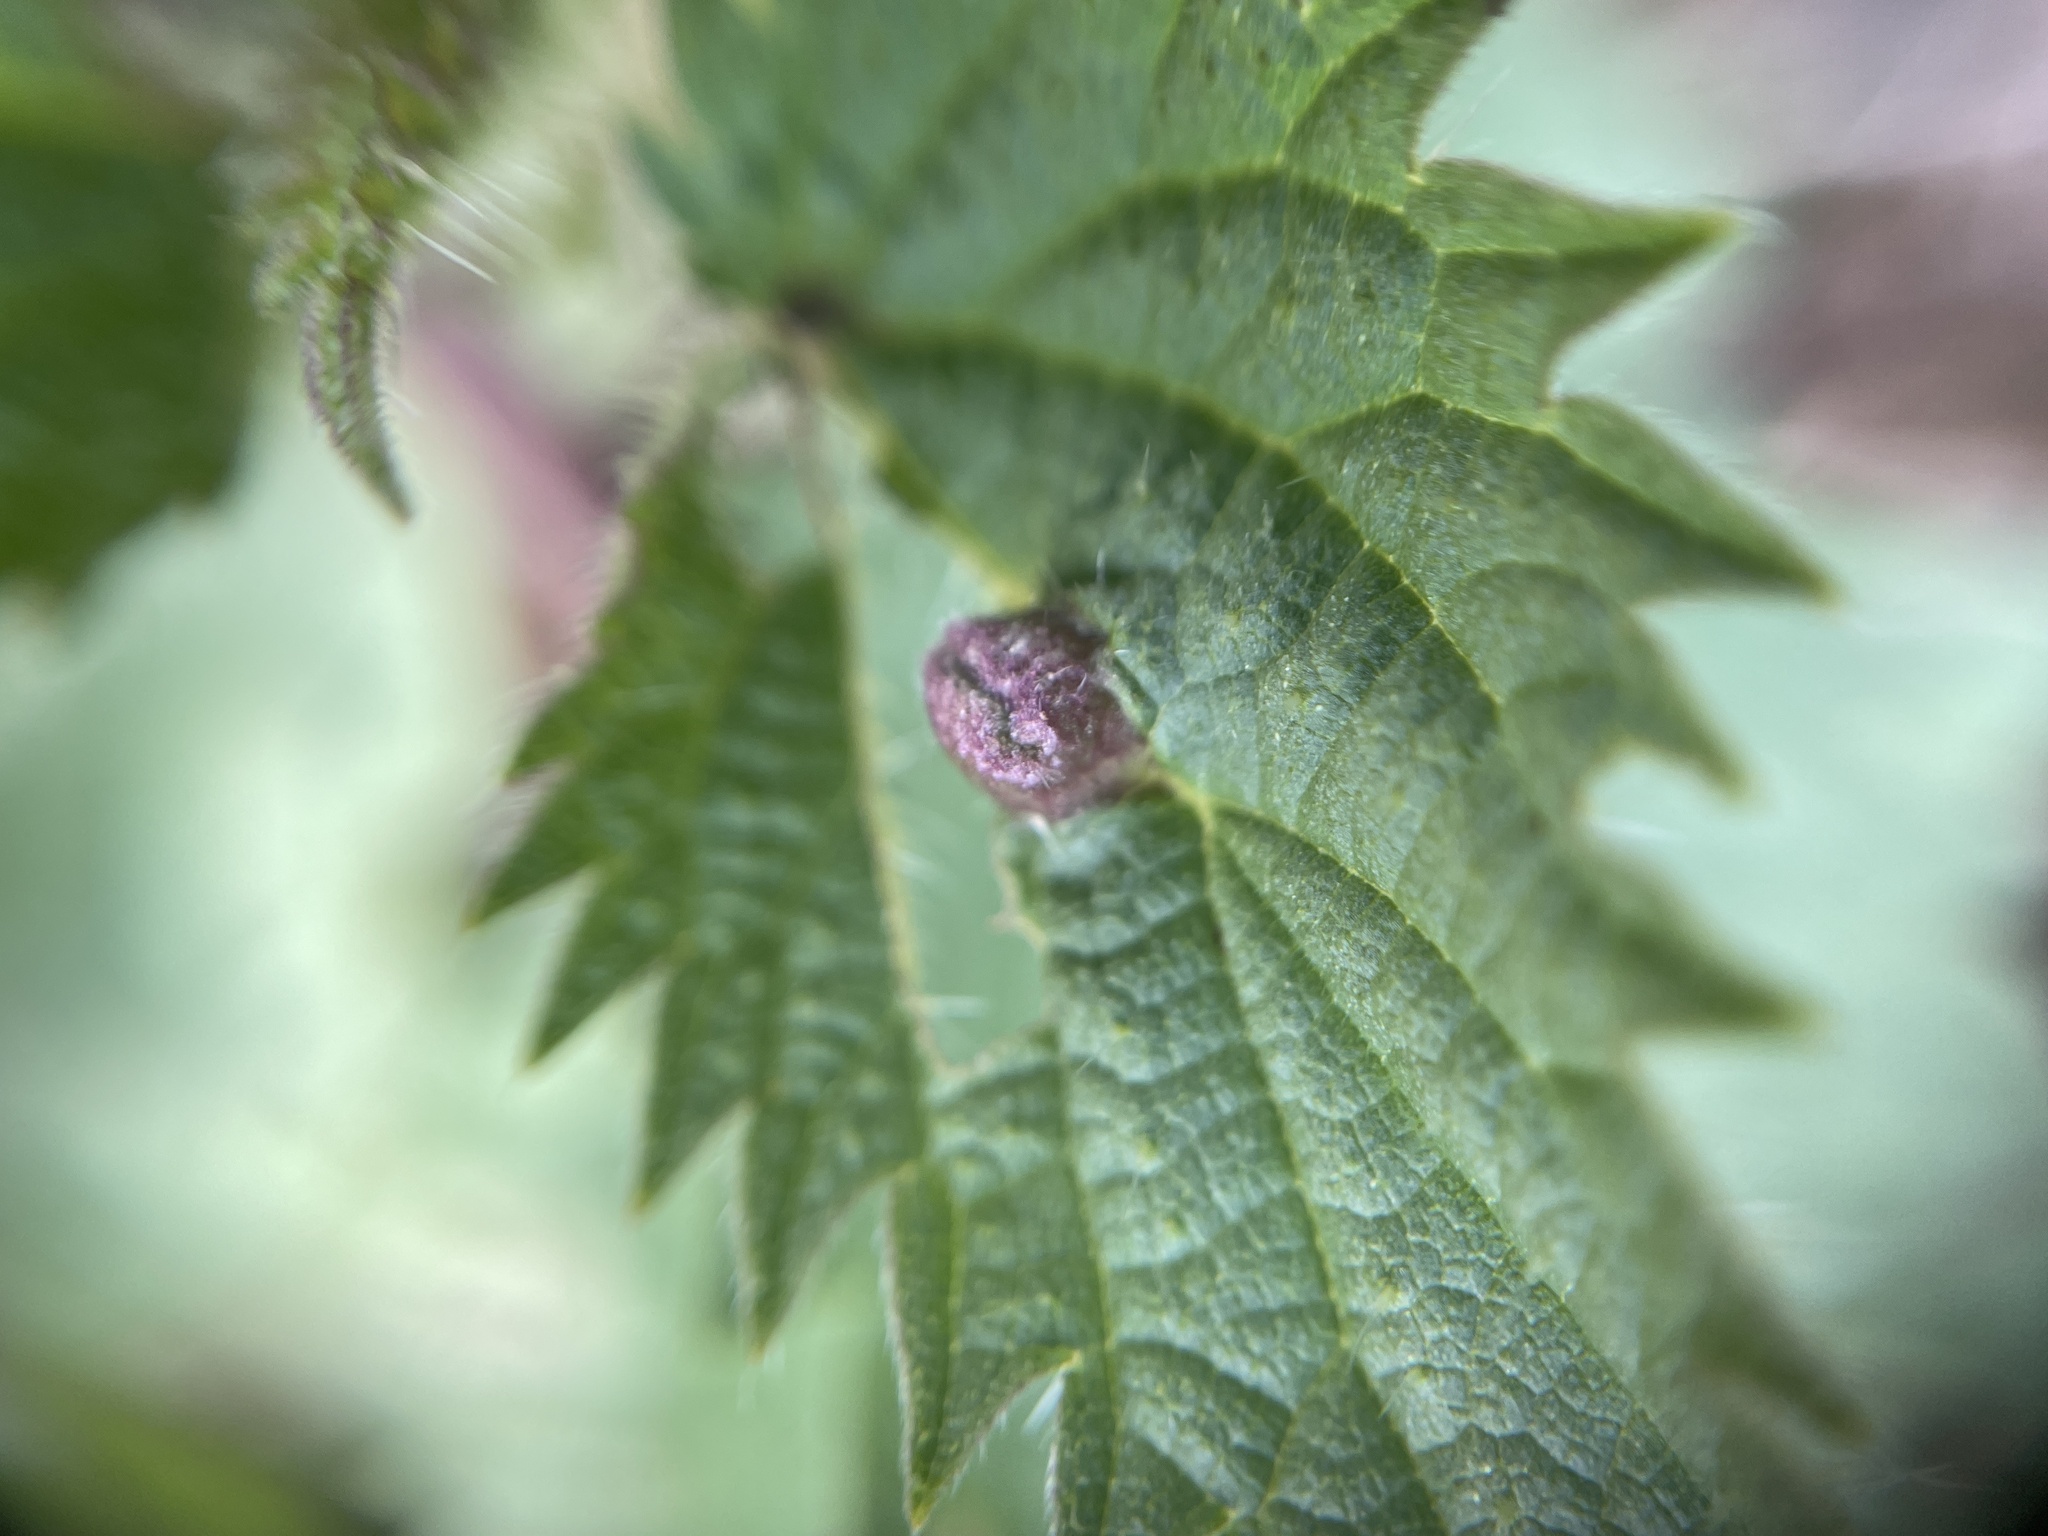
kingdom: Animalia
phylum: Arthropoda
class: Insecta
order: Diptera
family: Cecidomyiidae
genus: Dasineura
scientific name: Dasineura urticae
